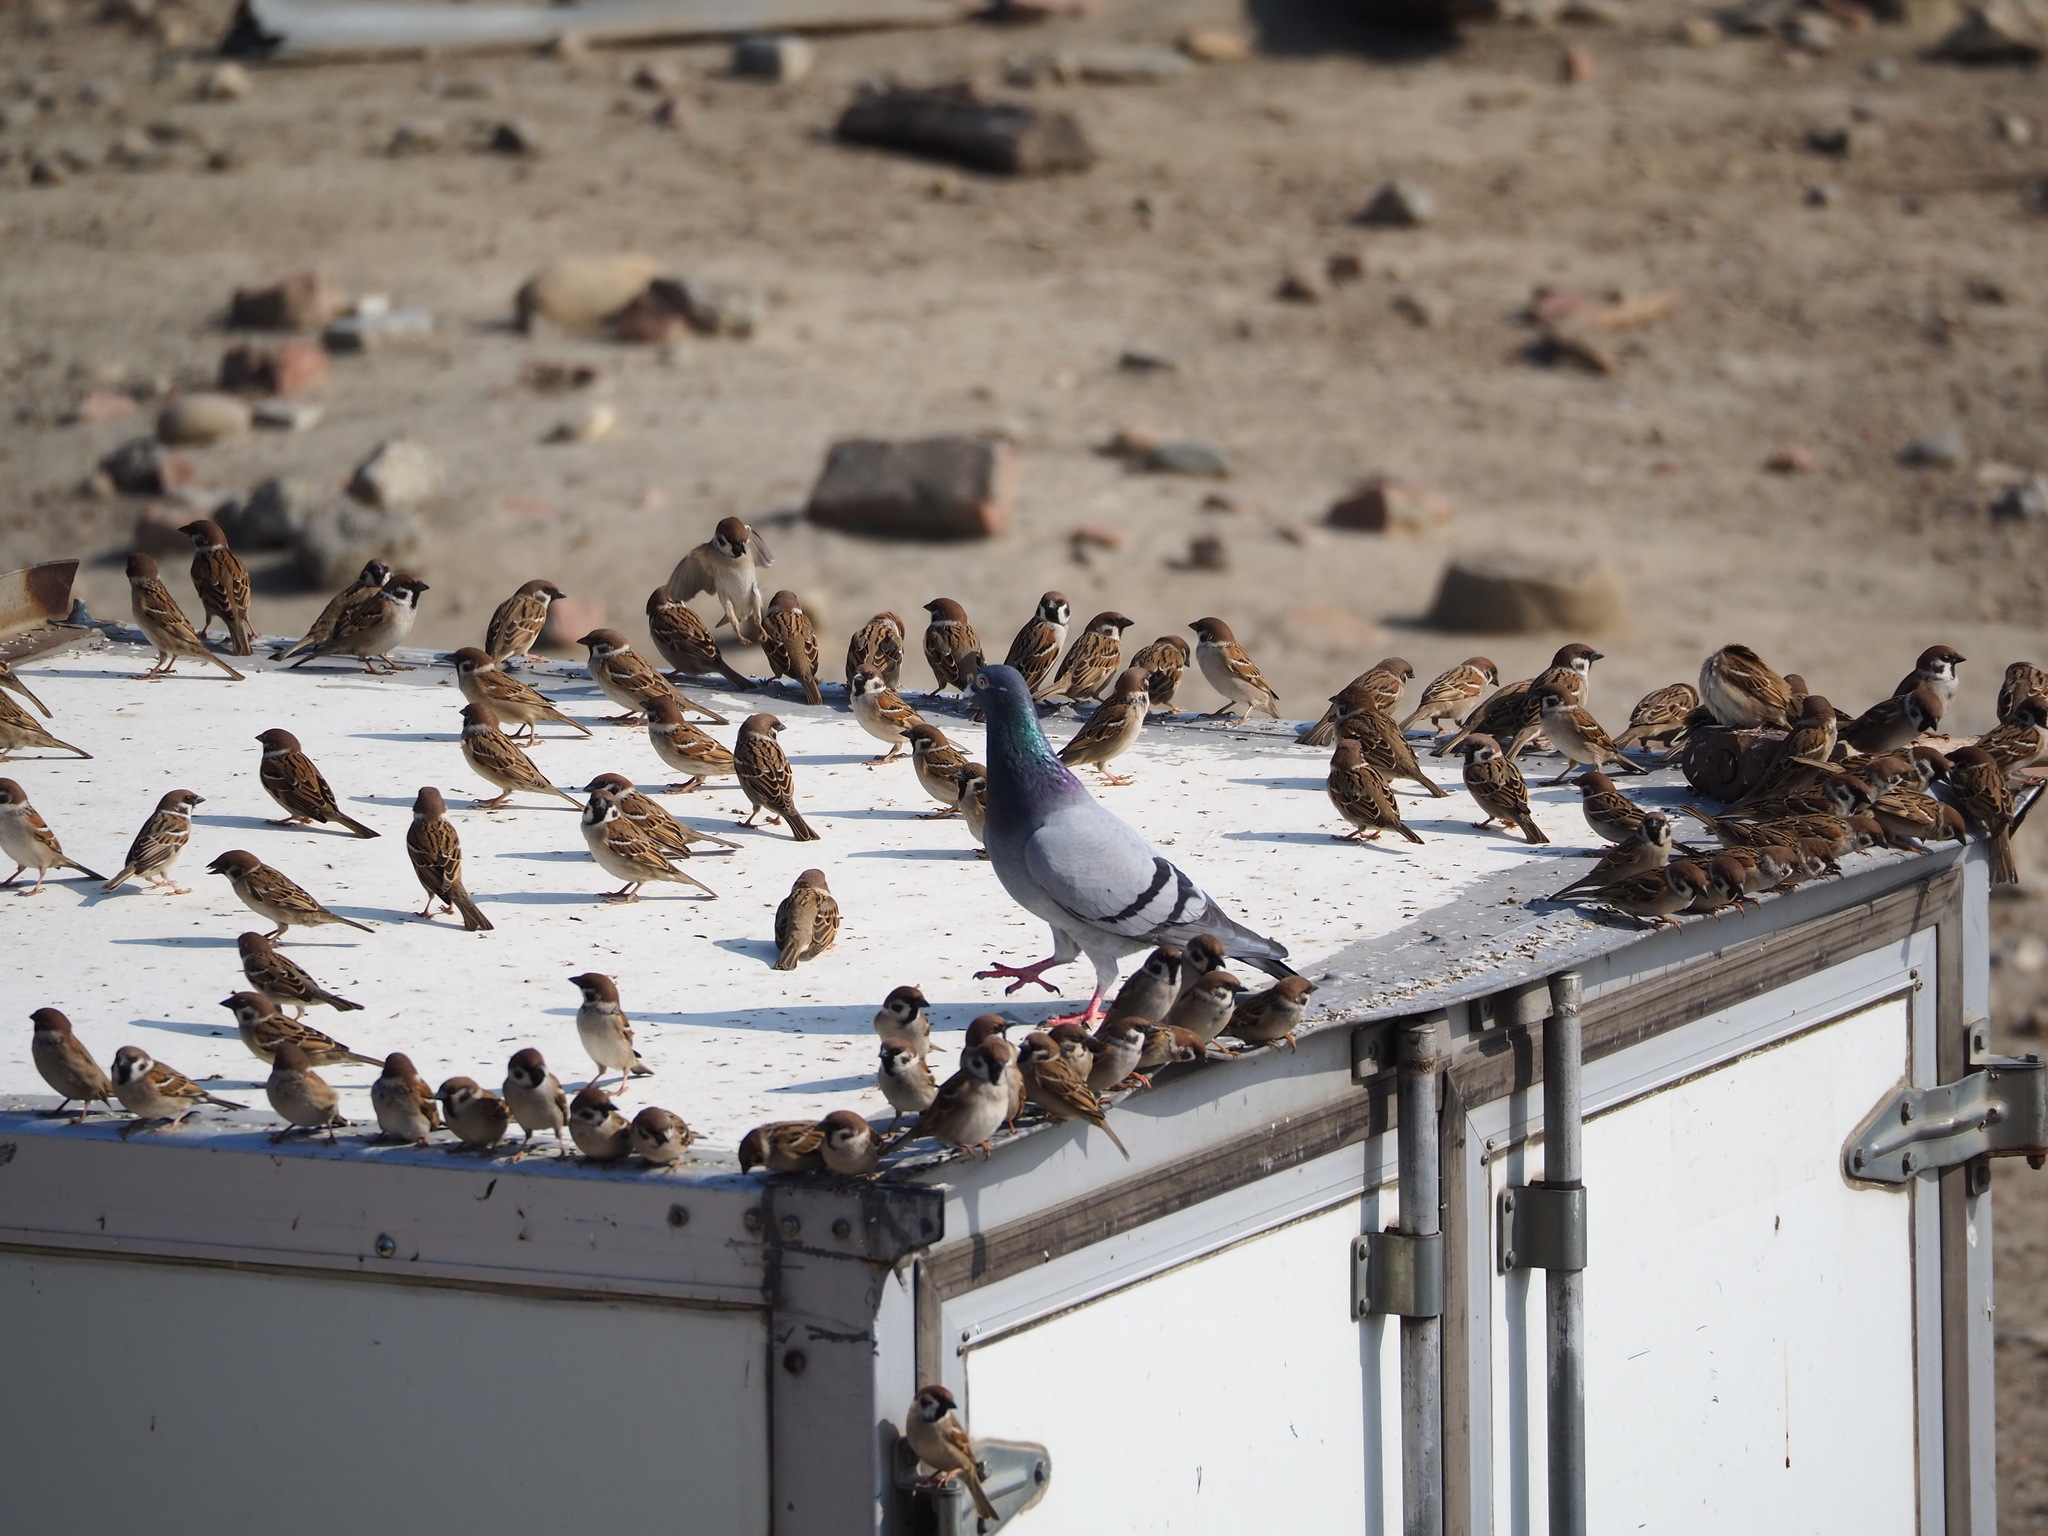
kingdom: Animalia
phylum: Chordata
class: Aves
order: Passeriformes
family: Passeridae
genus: Passer
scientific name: Passer montanus
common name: Eurasian tree sparrow
